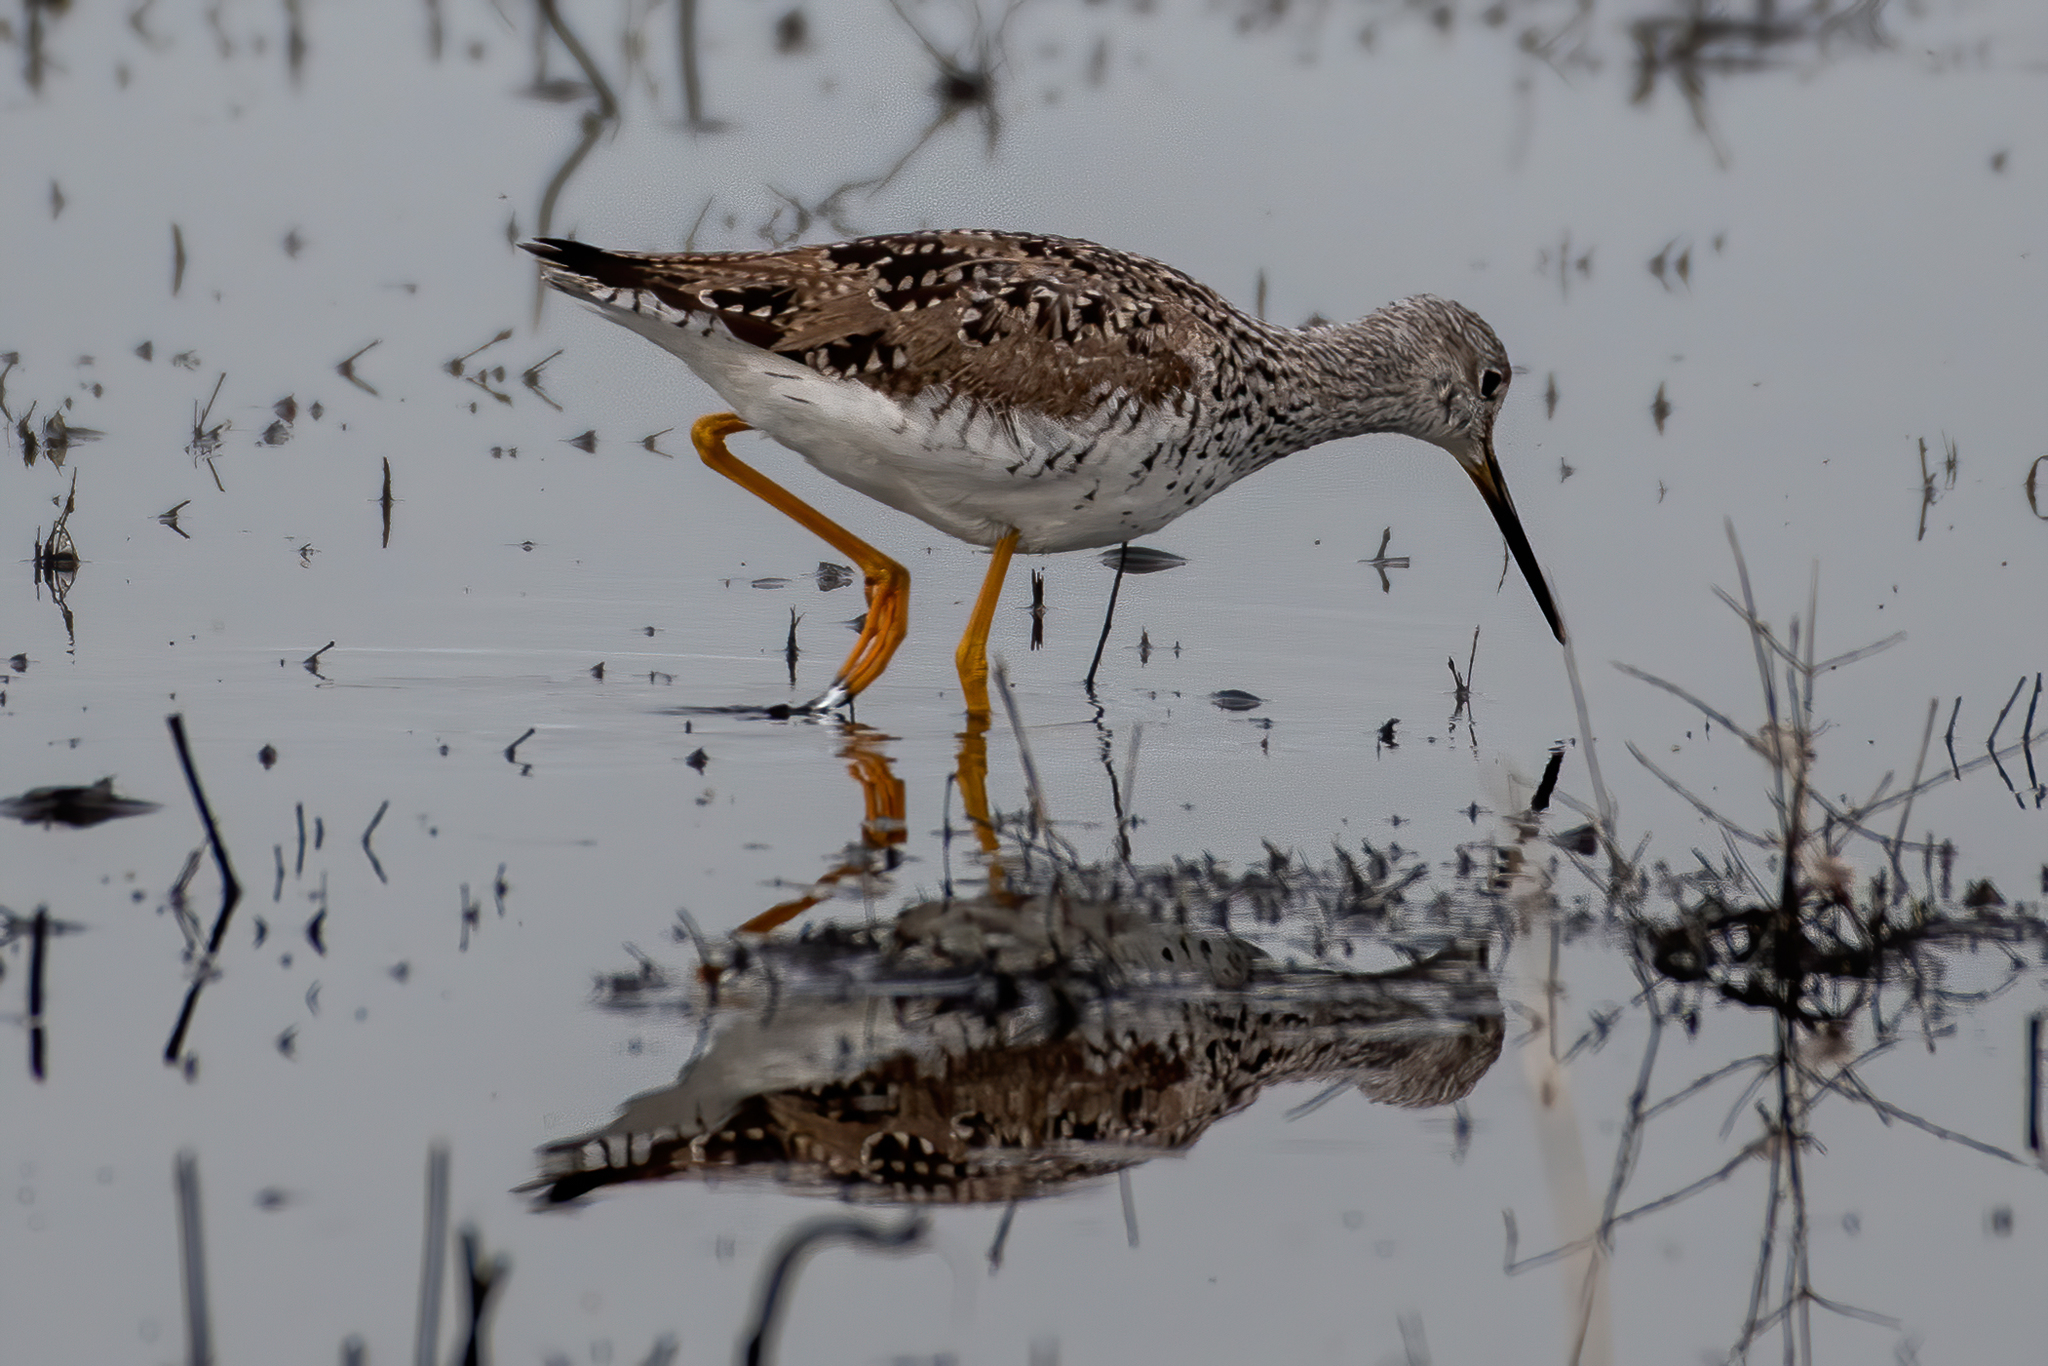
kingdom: Animalia
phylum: Chordata
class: Aves
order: Charadriiformes
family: Scolopacidae
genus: Tringa
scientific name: Tringa melanoleuca
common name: Greater yellowlegs
